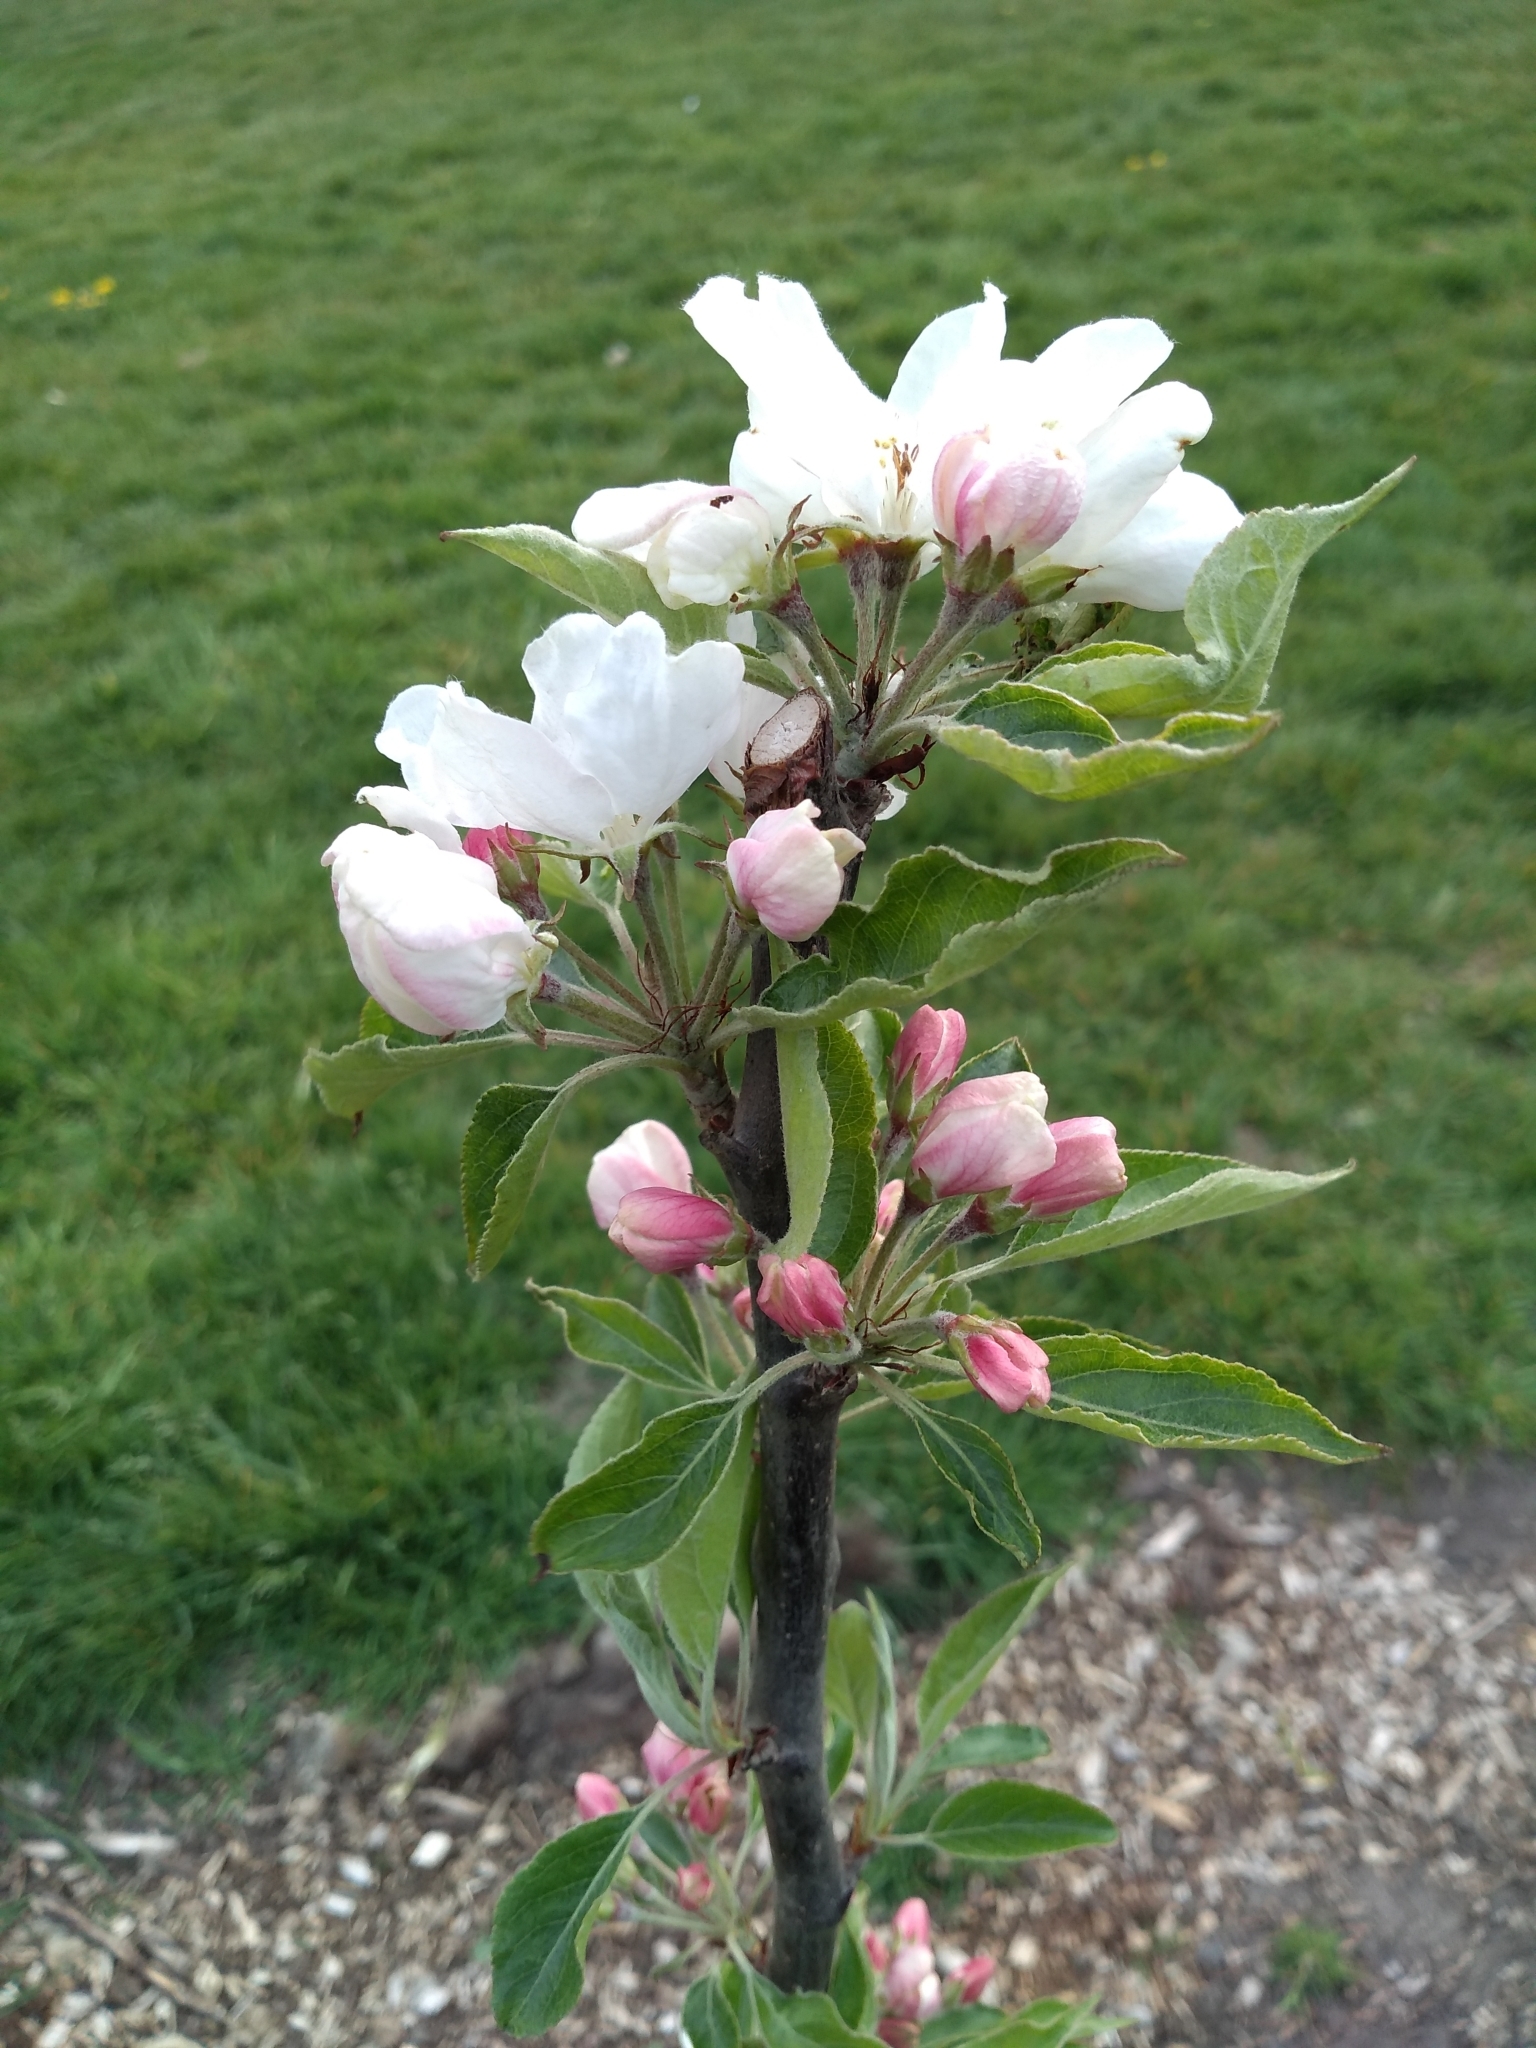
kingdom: Plantae
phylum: Tracheophyta
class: Magnoliopsida
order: Rosales
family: Rosaceae
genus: Malus
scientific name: Malus domestica
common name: Apple
